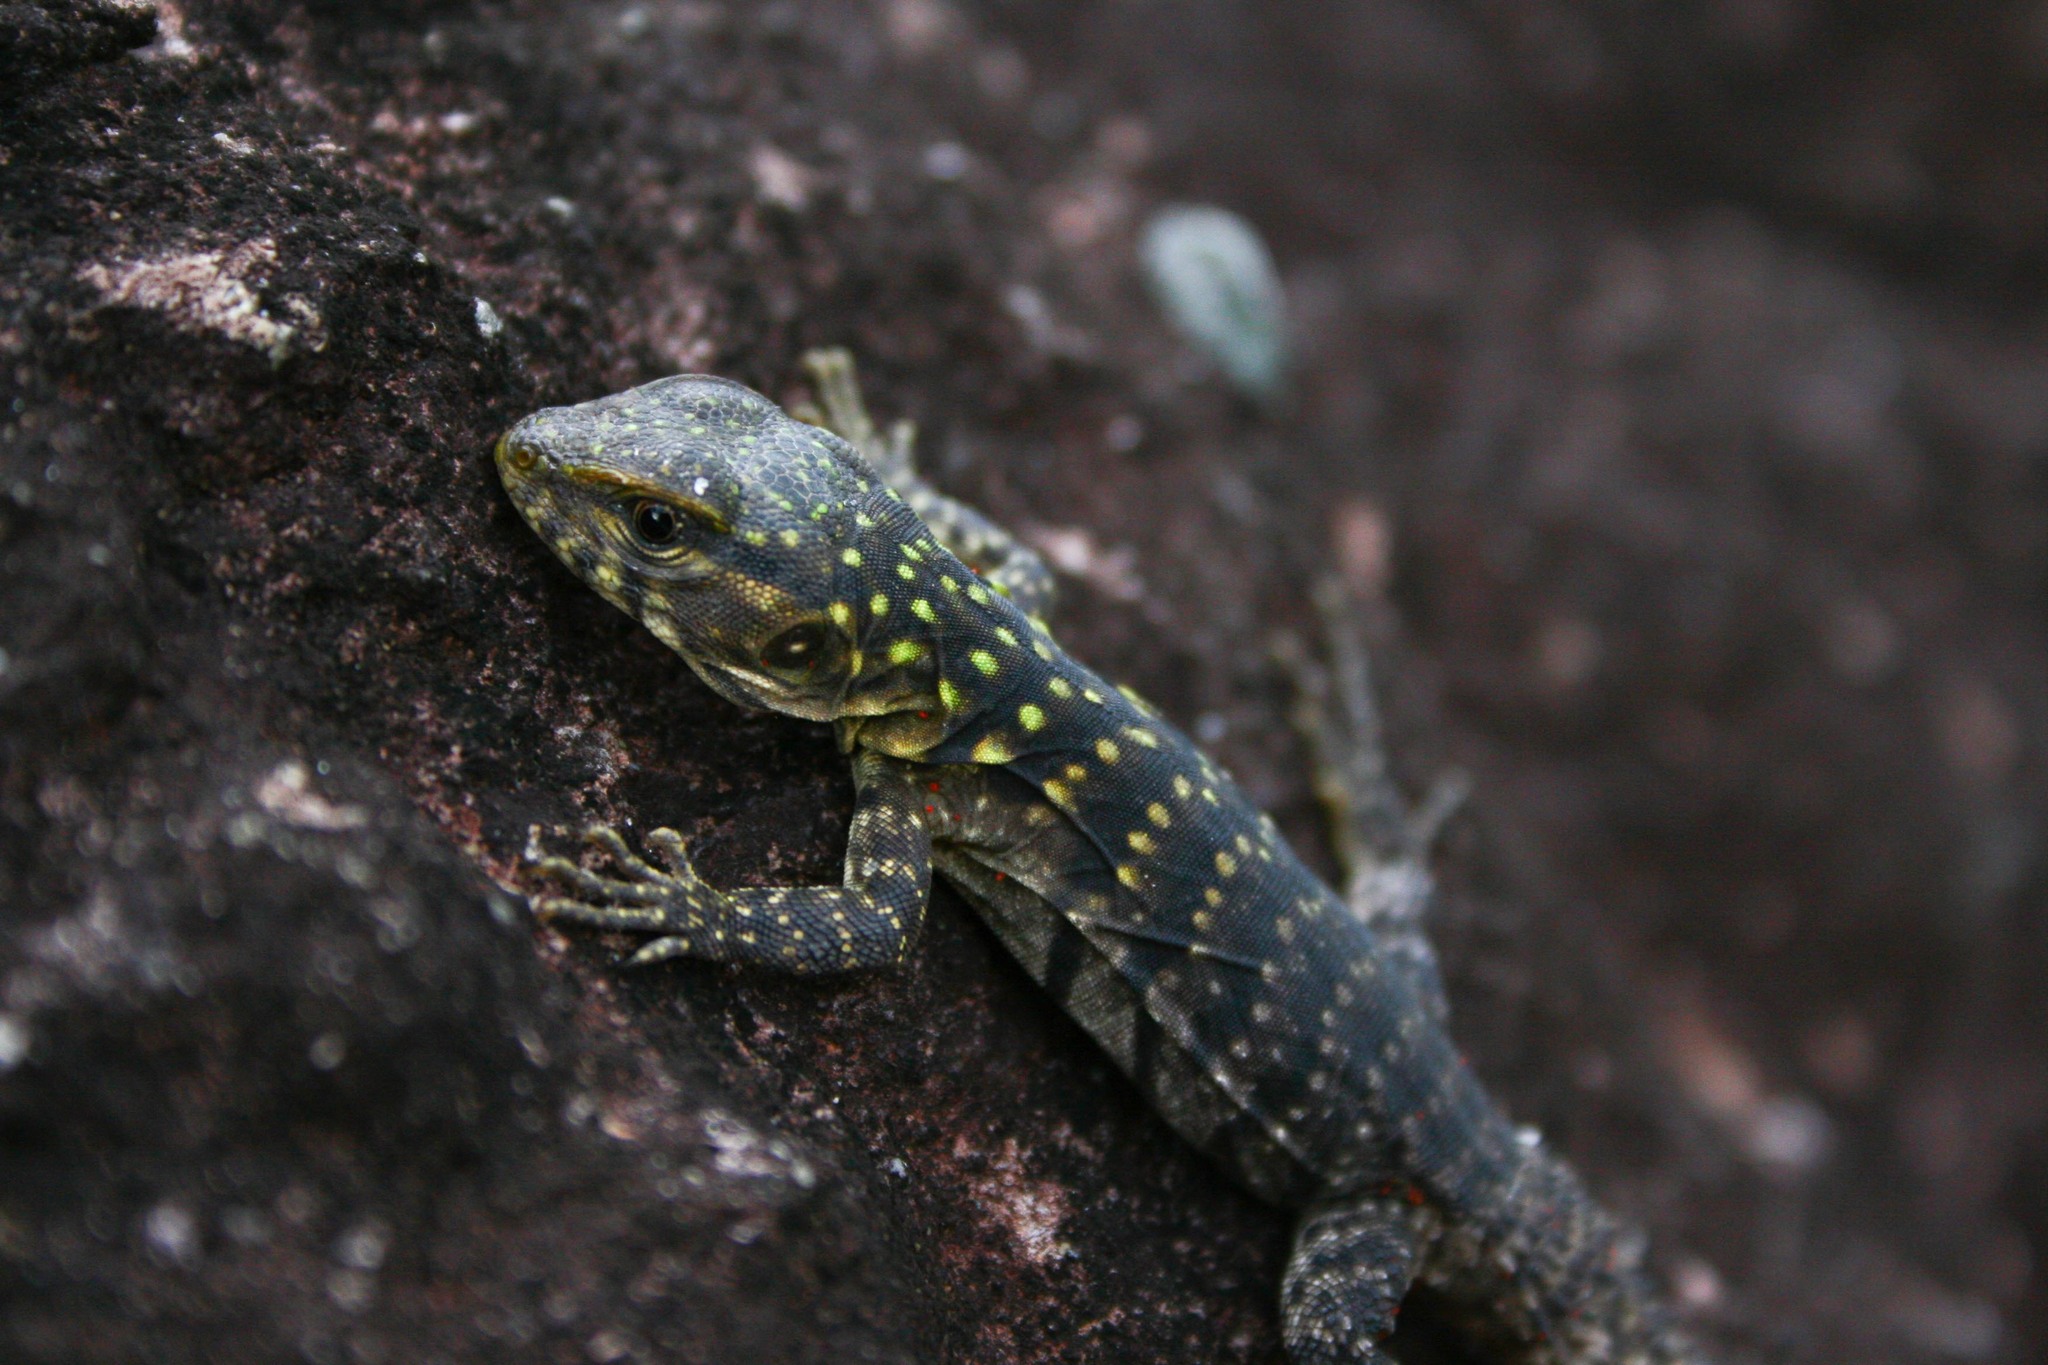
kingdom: Animalia
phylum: Chordata
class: Squamata
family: Iguanidae
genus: Ctenosaura
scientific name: Ctenosaura flavidorsalis
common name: Yellow-backed spiny-tailed iguana
